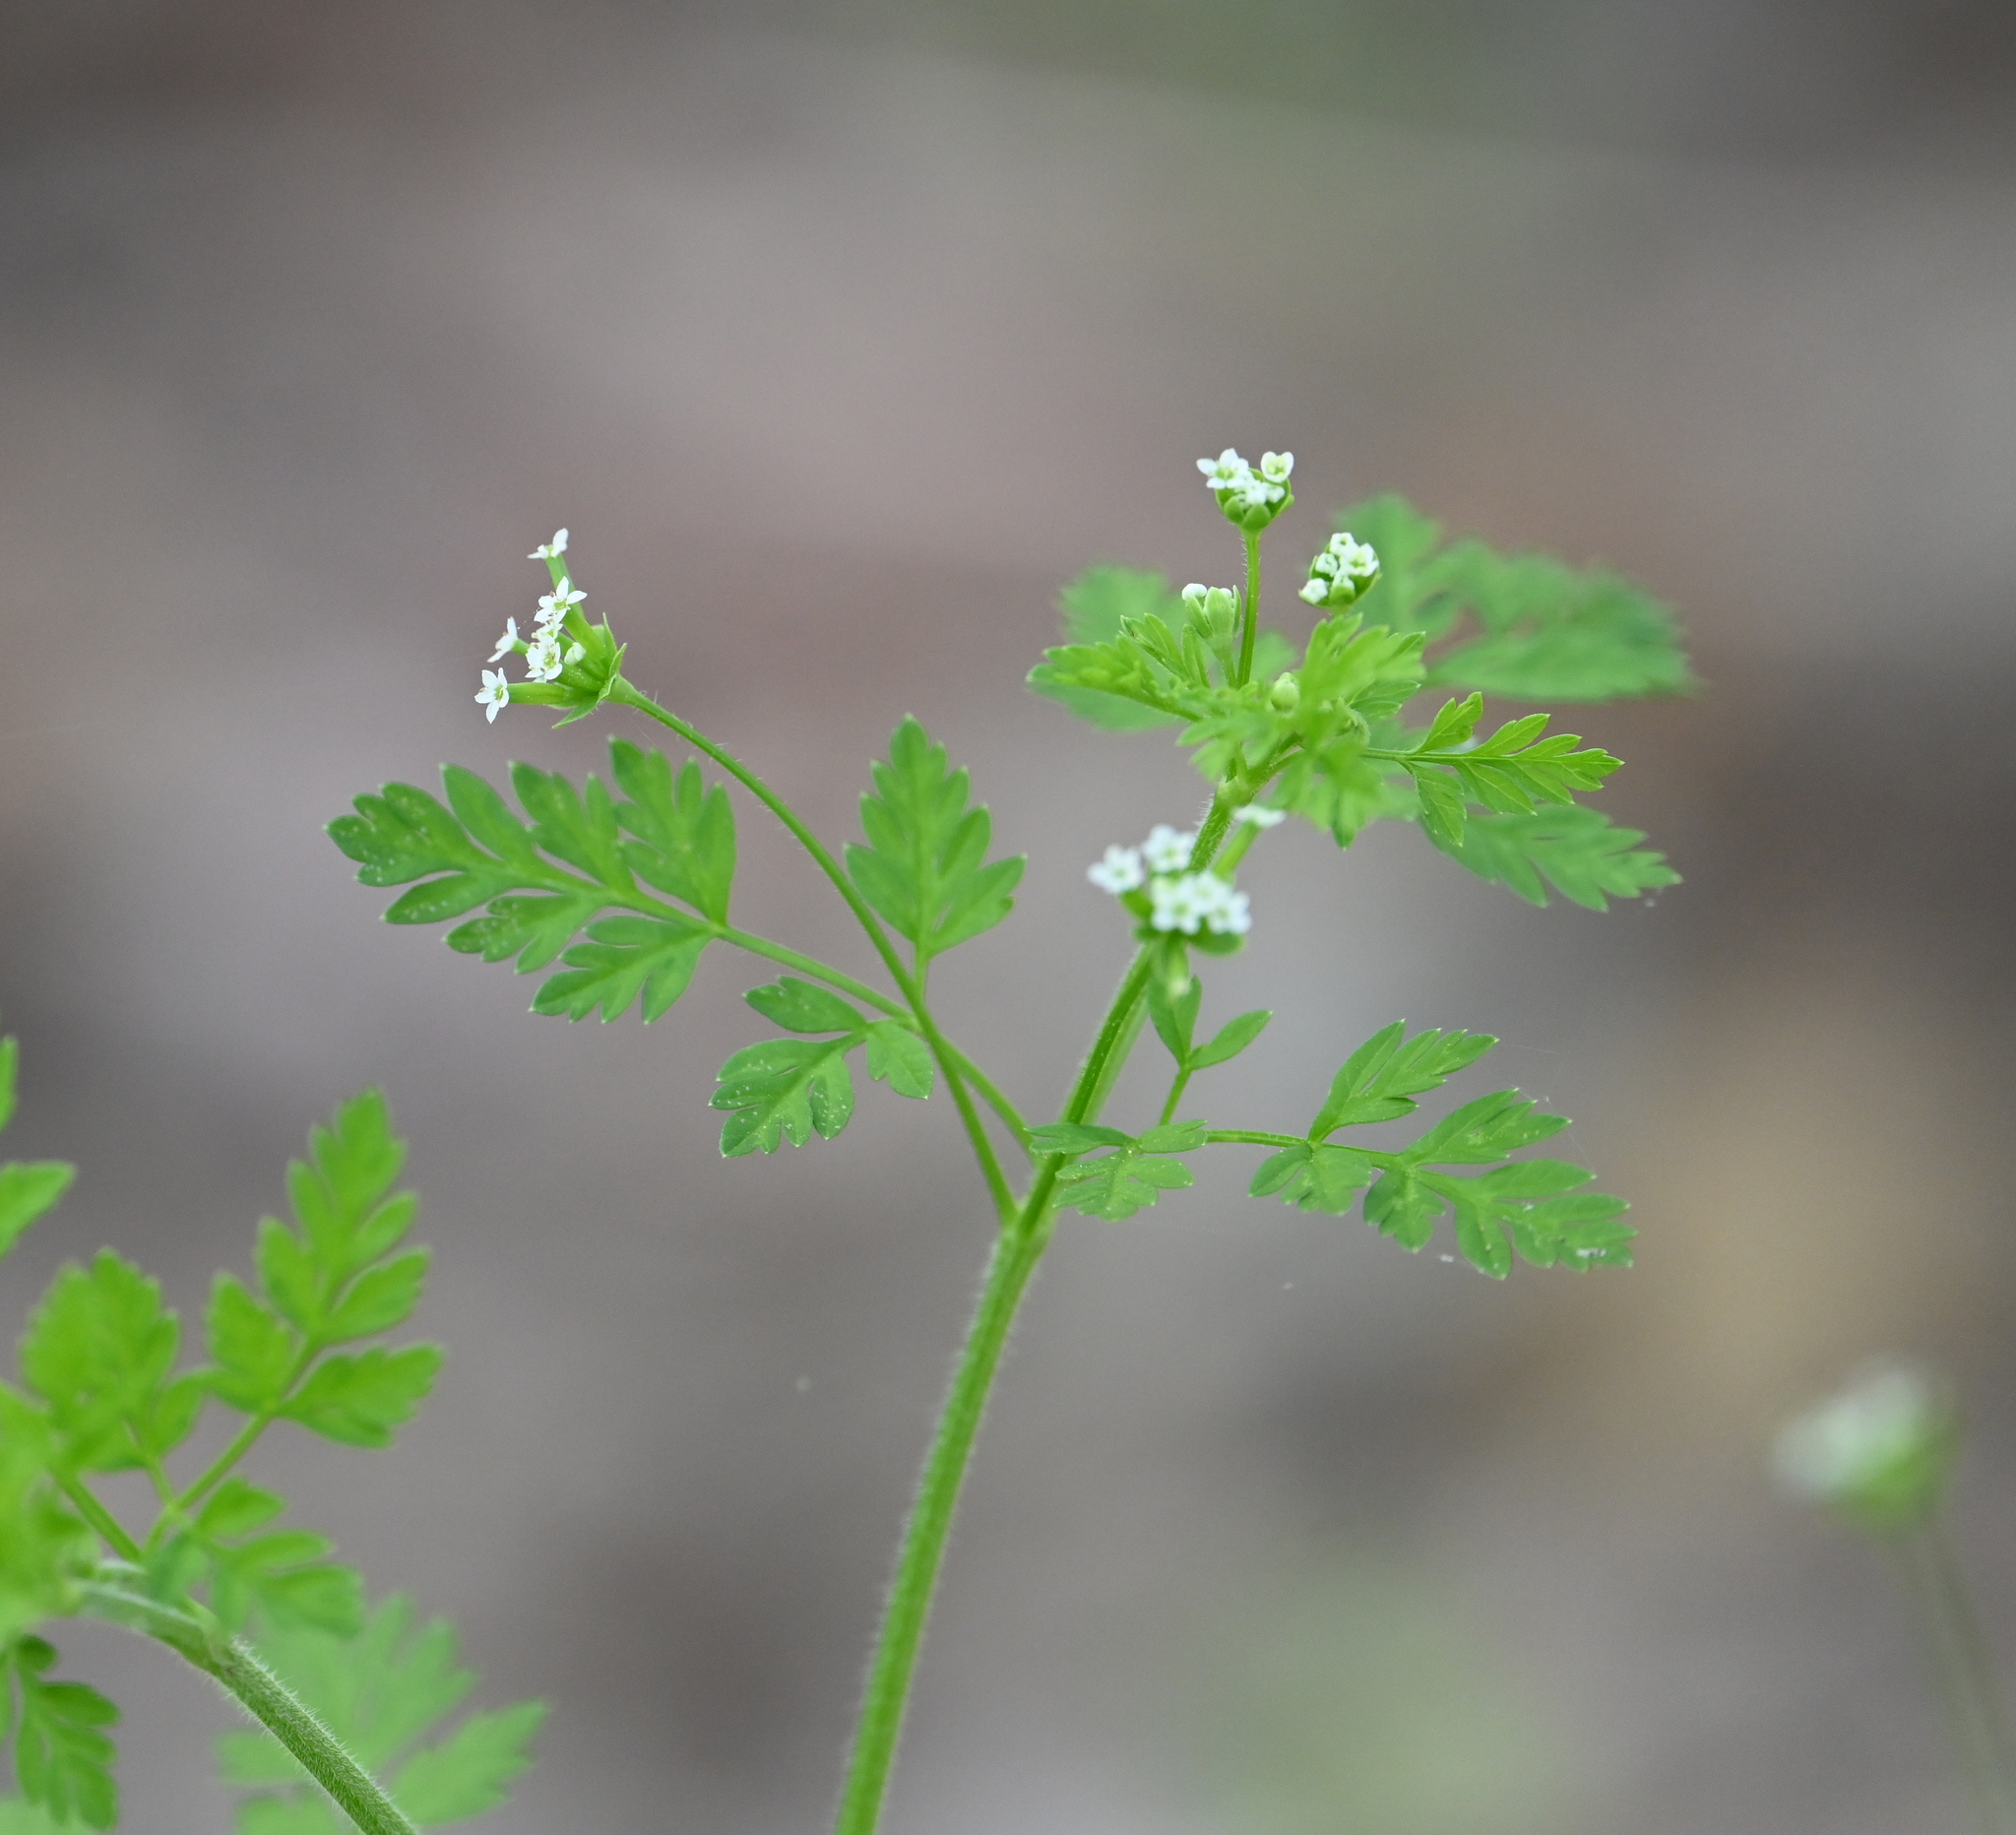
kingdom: Plantae
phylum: Tracheophyta
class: Magnoliopsida
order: Apiales
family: Apiaceae
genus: Chaerophyllum
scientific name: Chaerophyllum tainturieri
